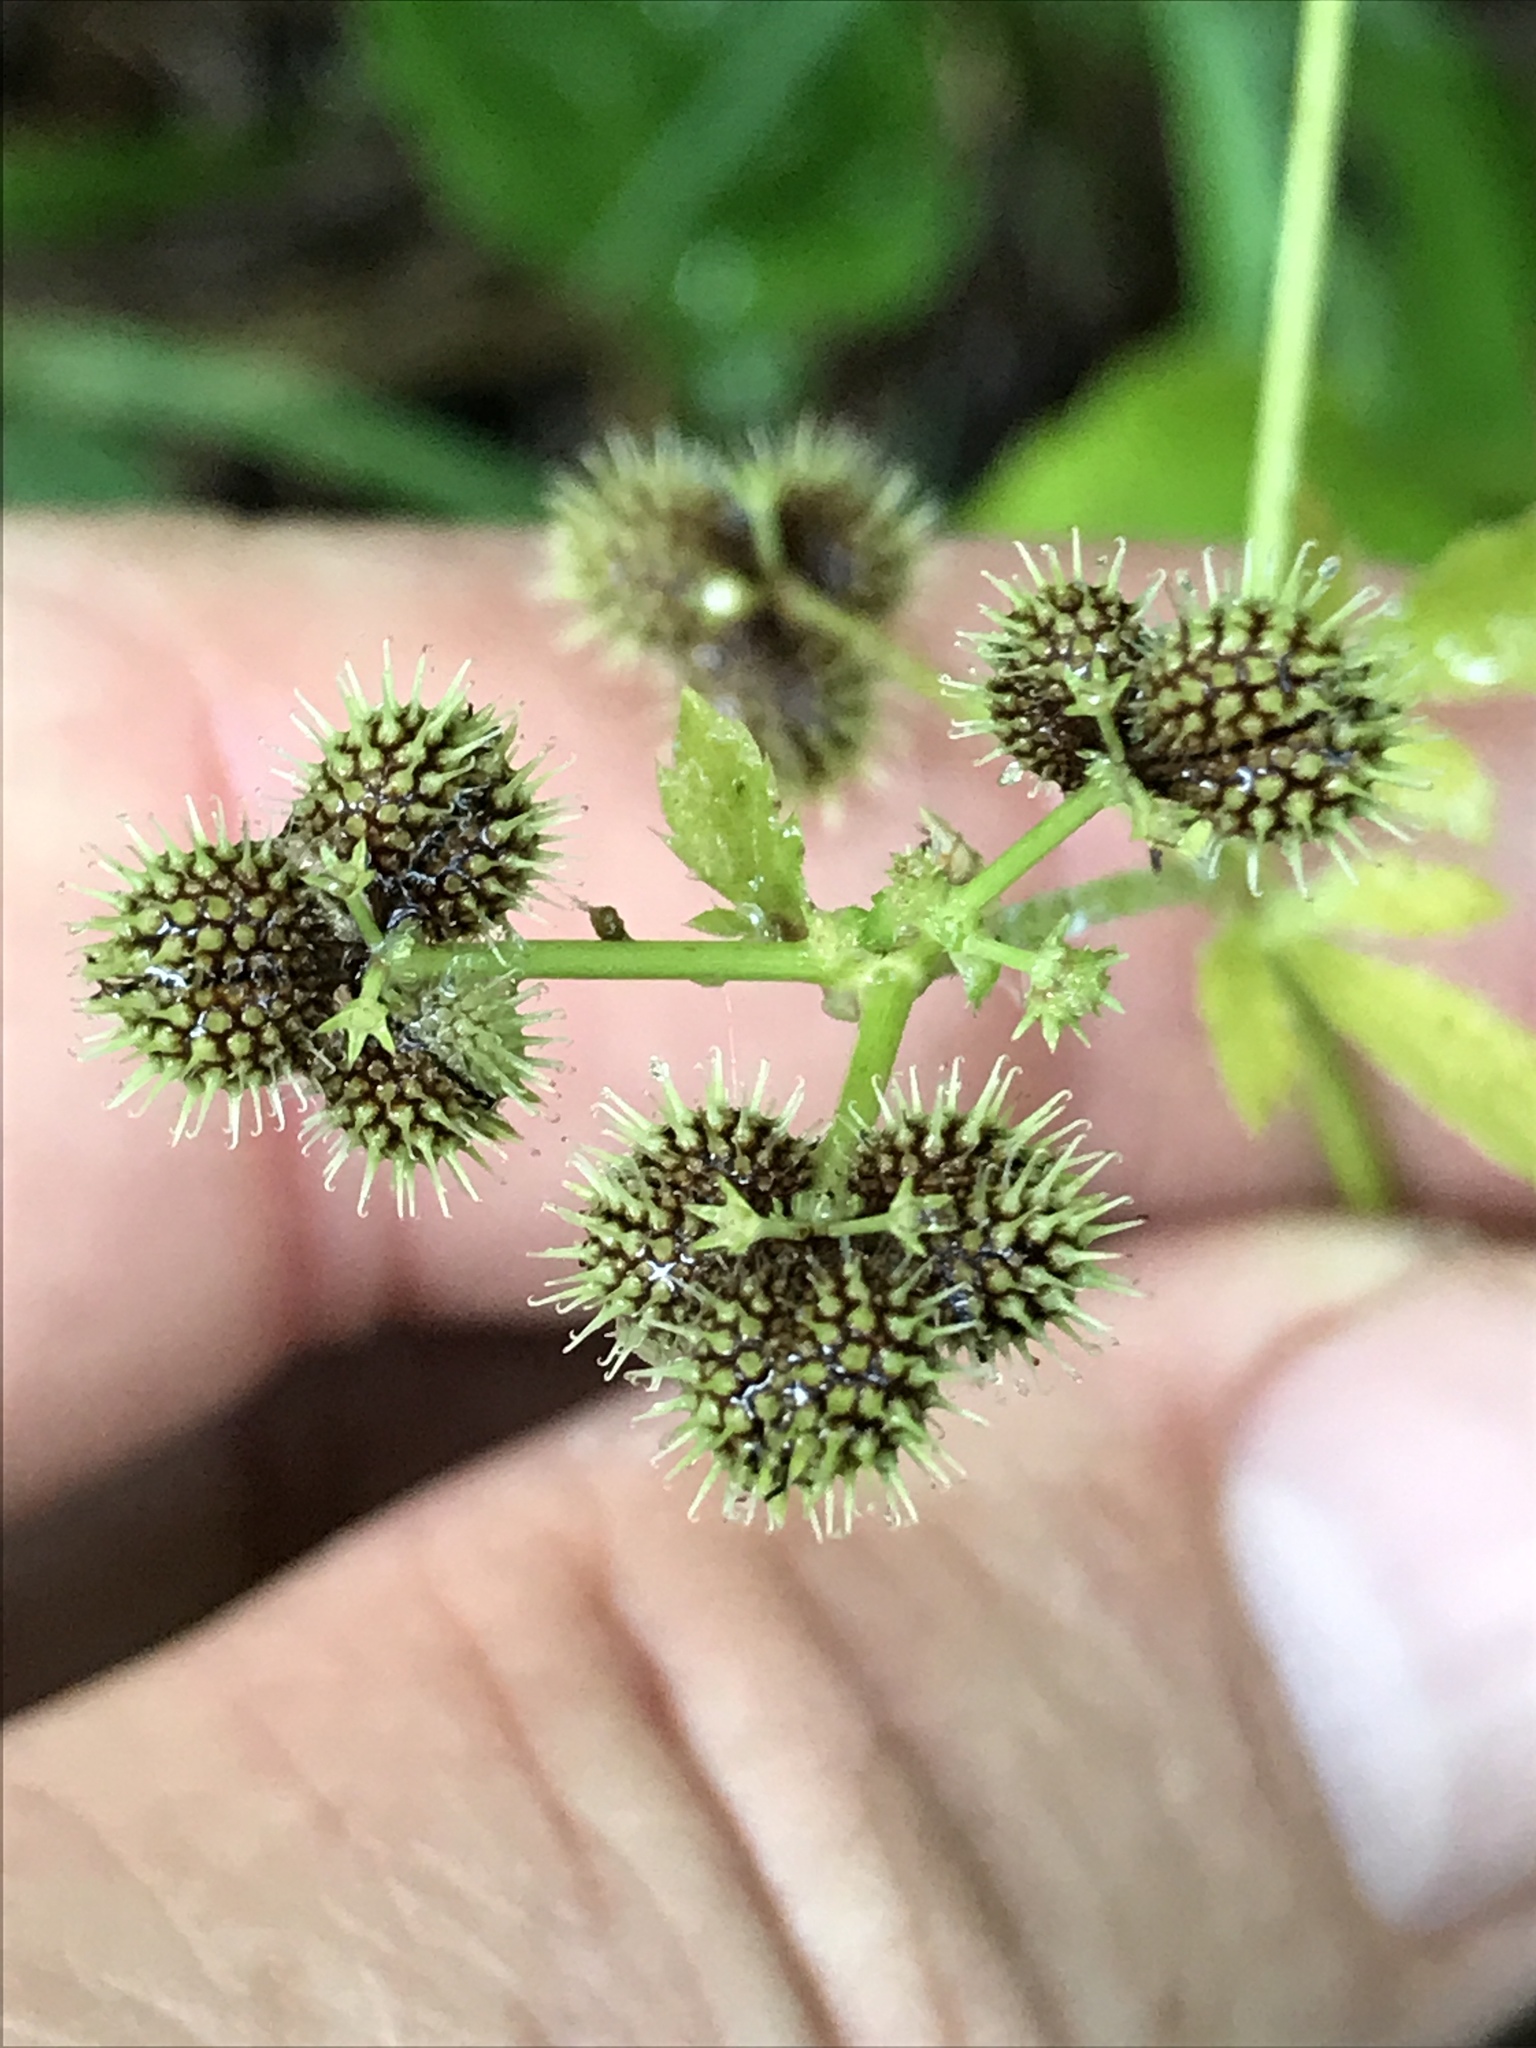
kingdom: Plantae
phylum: Tracheophyta
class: Magnoliopsida
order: Apiales
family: Apiaceae
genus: Sanicula
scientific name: Sanicula canadensis
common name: Canada sanicle
